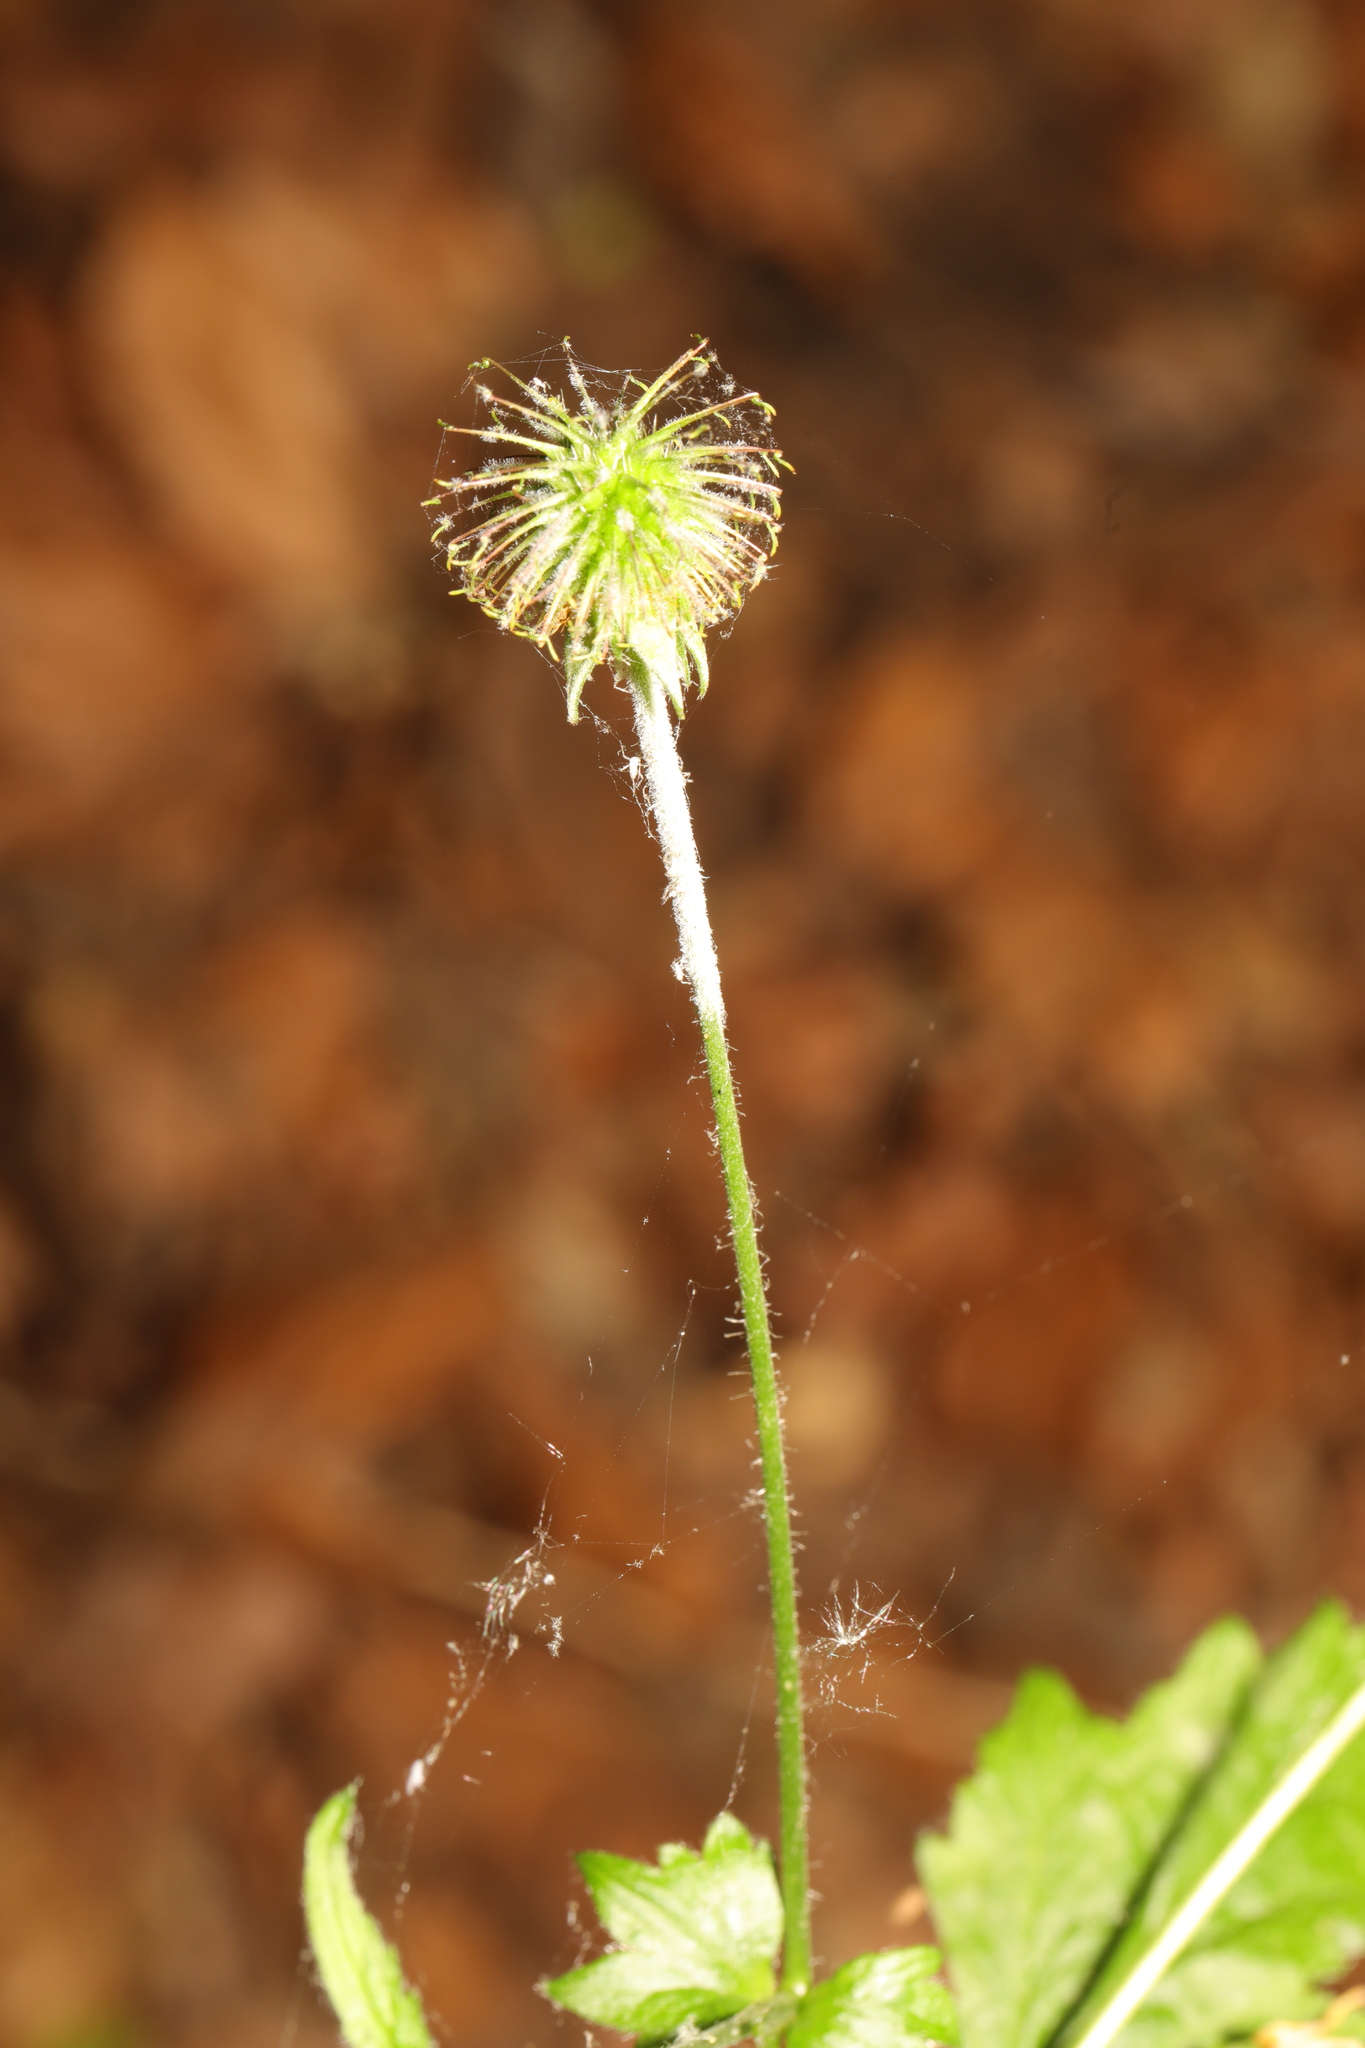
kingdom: Plantae
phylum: Tracheophyta
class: Magnoliopsida
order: Rosales
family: Rosaceae
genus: Geum
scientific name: Geum urbanum
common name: Wood avens
